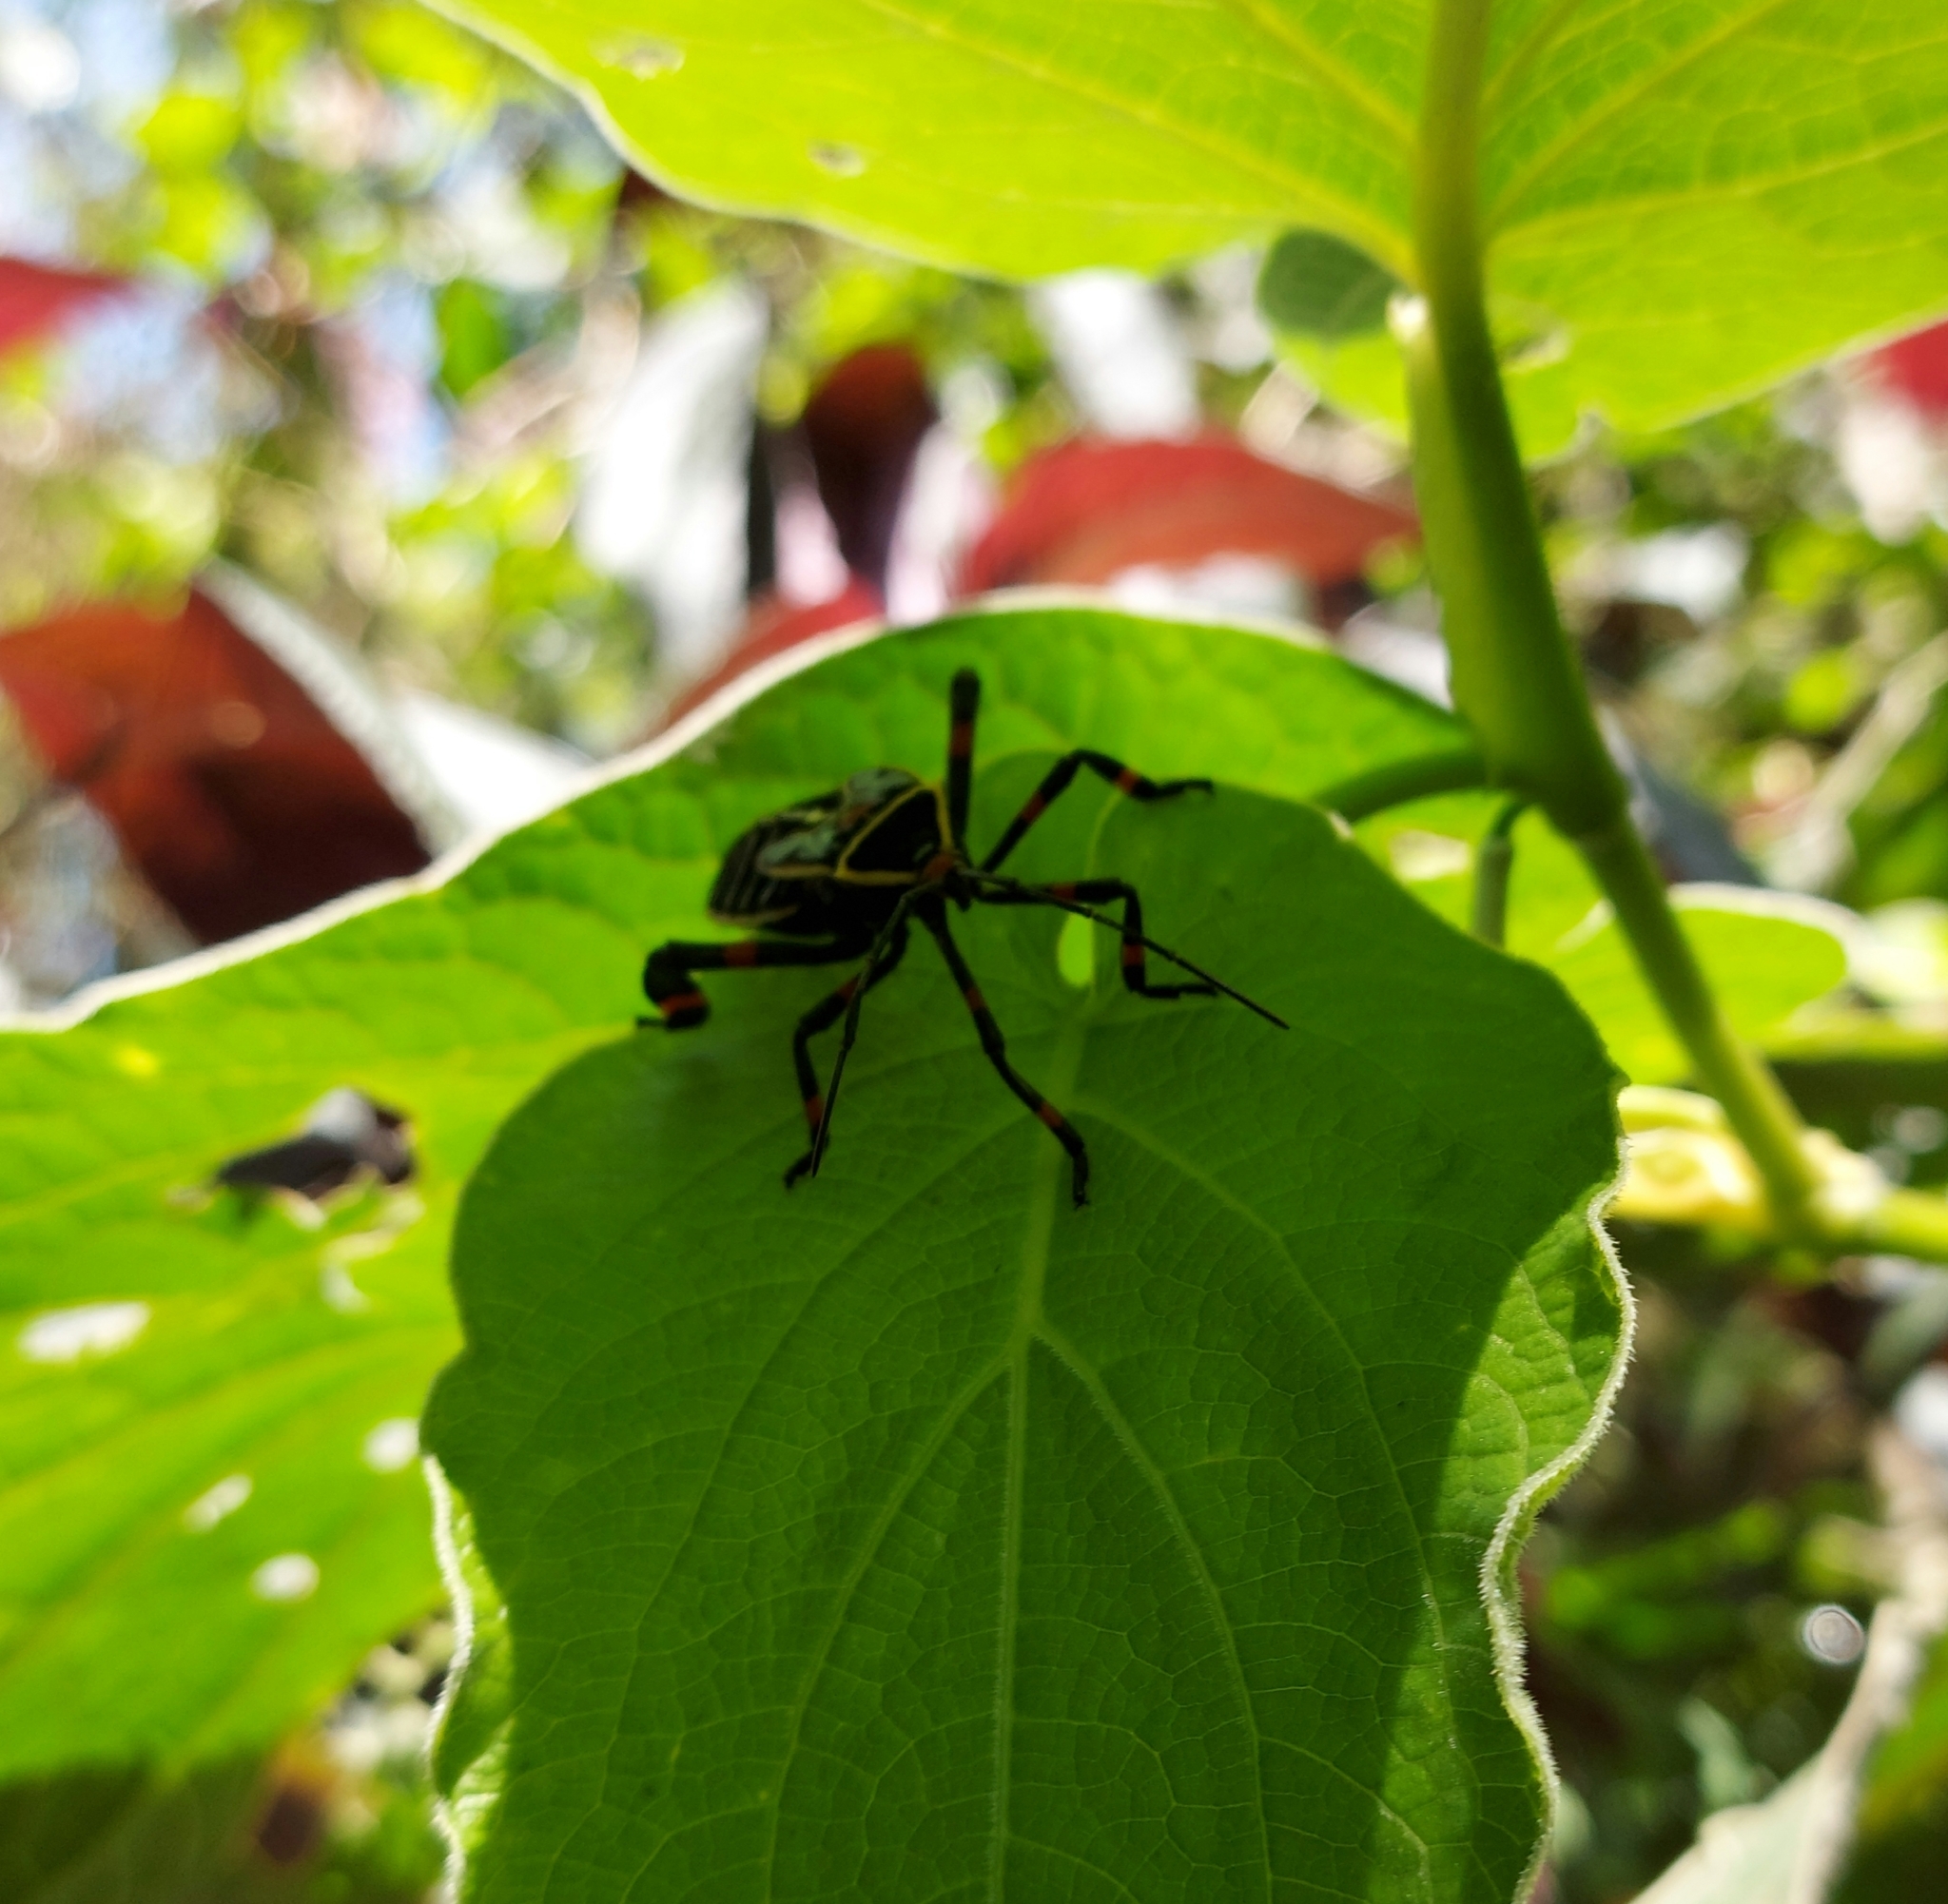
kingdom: Animalia
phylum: Arthropoda
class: Insecta
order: Hemiptera
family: Coreidae
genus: Thasus
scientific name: Thasus acutangulus
